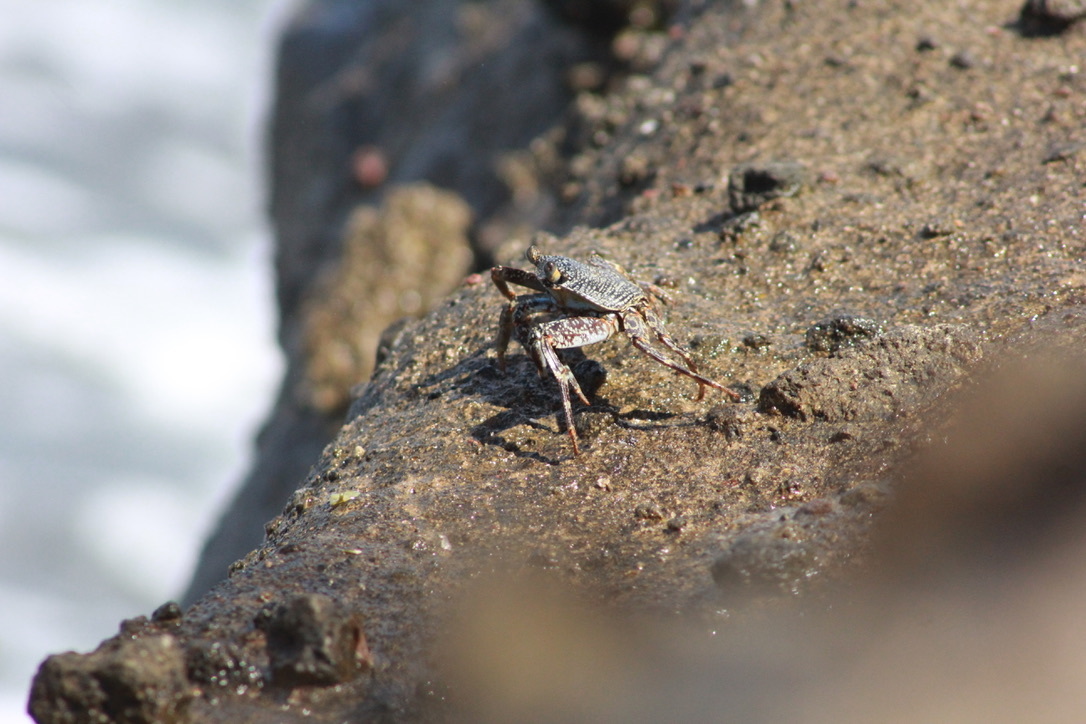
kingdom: Animalia
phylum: Arthropoda
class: Malacostraca
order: Decapoda
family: Grapsidae
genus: Grapsus
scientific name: Grapsus grapsus
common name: Sally lightfoot
